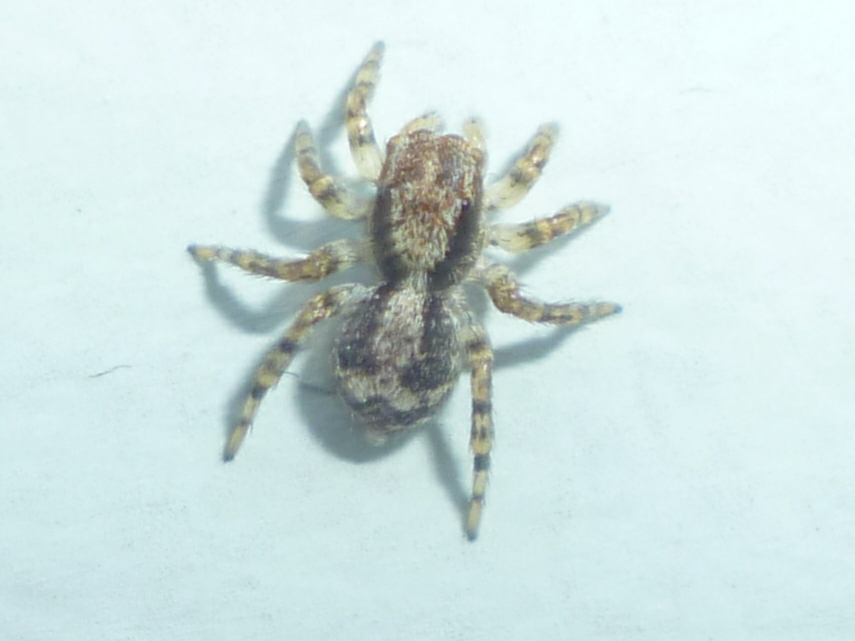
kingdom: Animalia
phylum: Arthropoda
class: Arachnida
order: Araneae
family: Salticidae
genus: Naphrys
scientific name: Naphrys pulex
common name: Flea jumping spider
